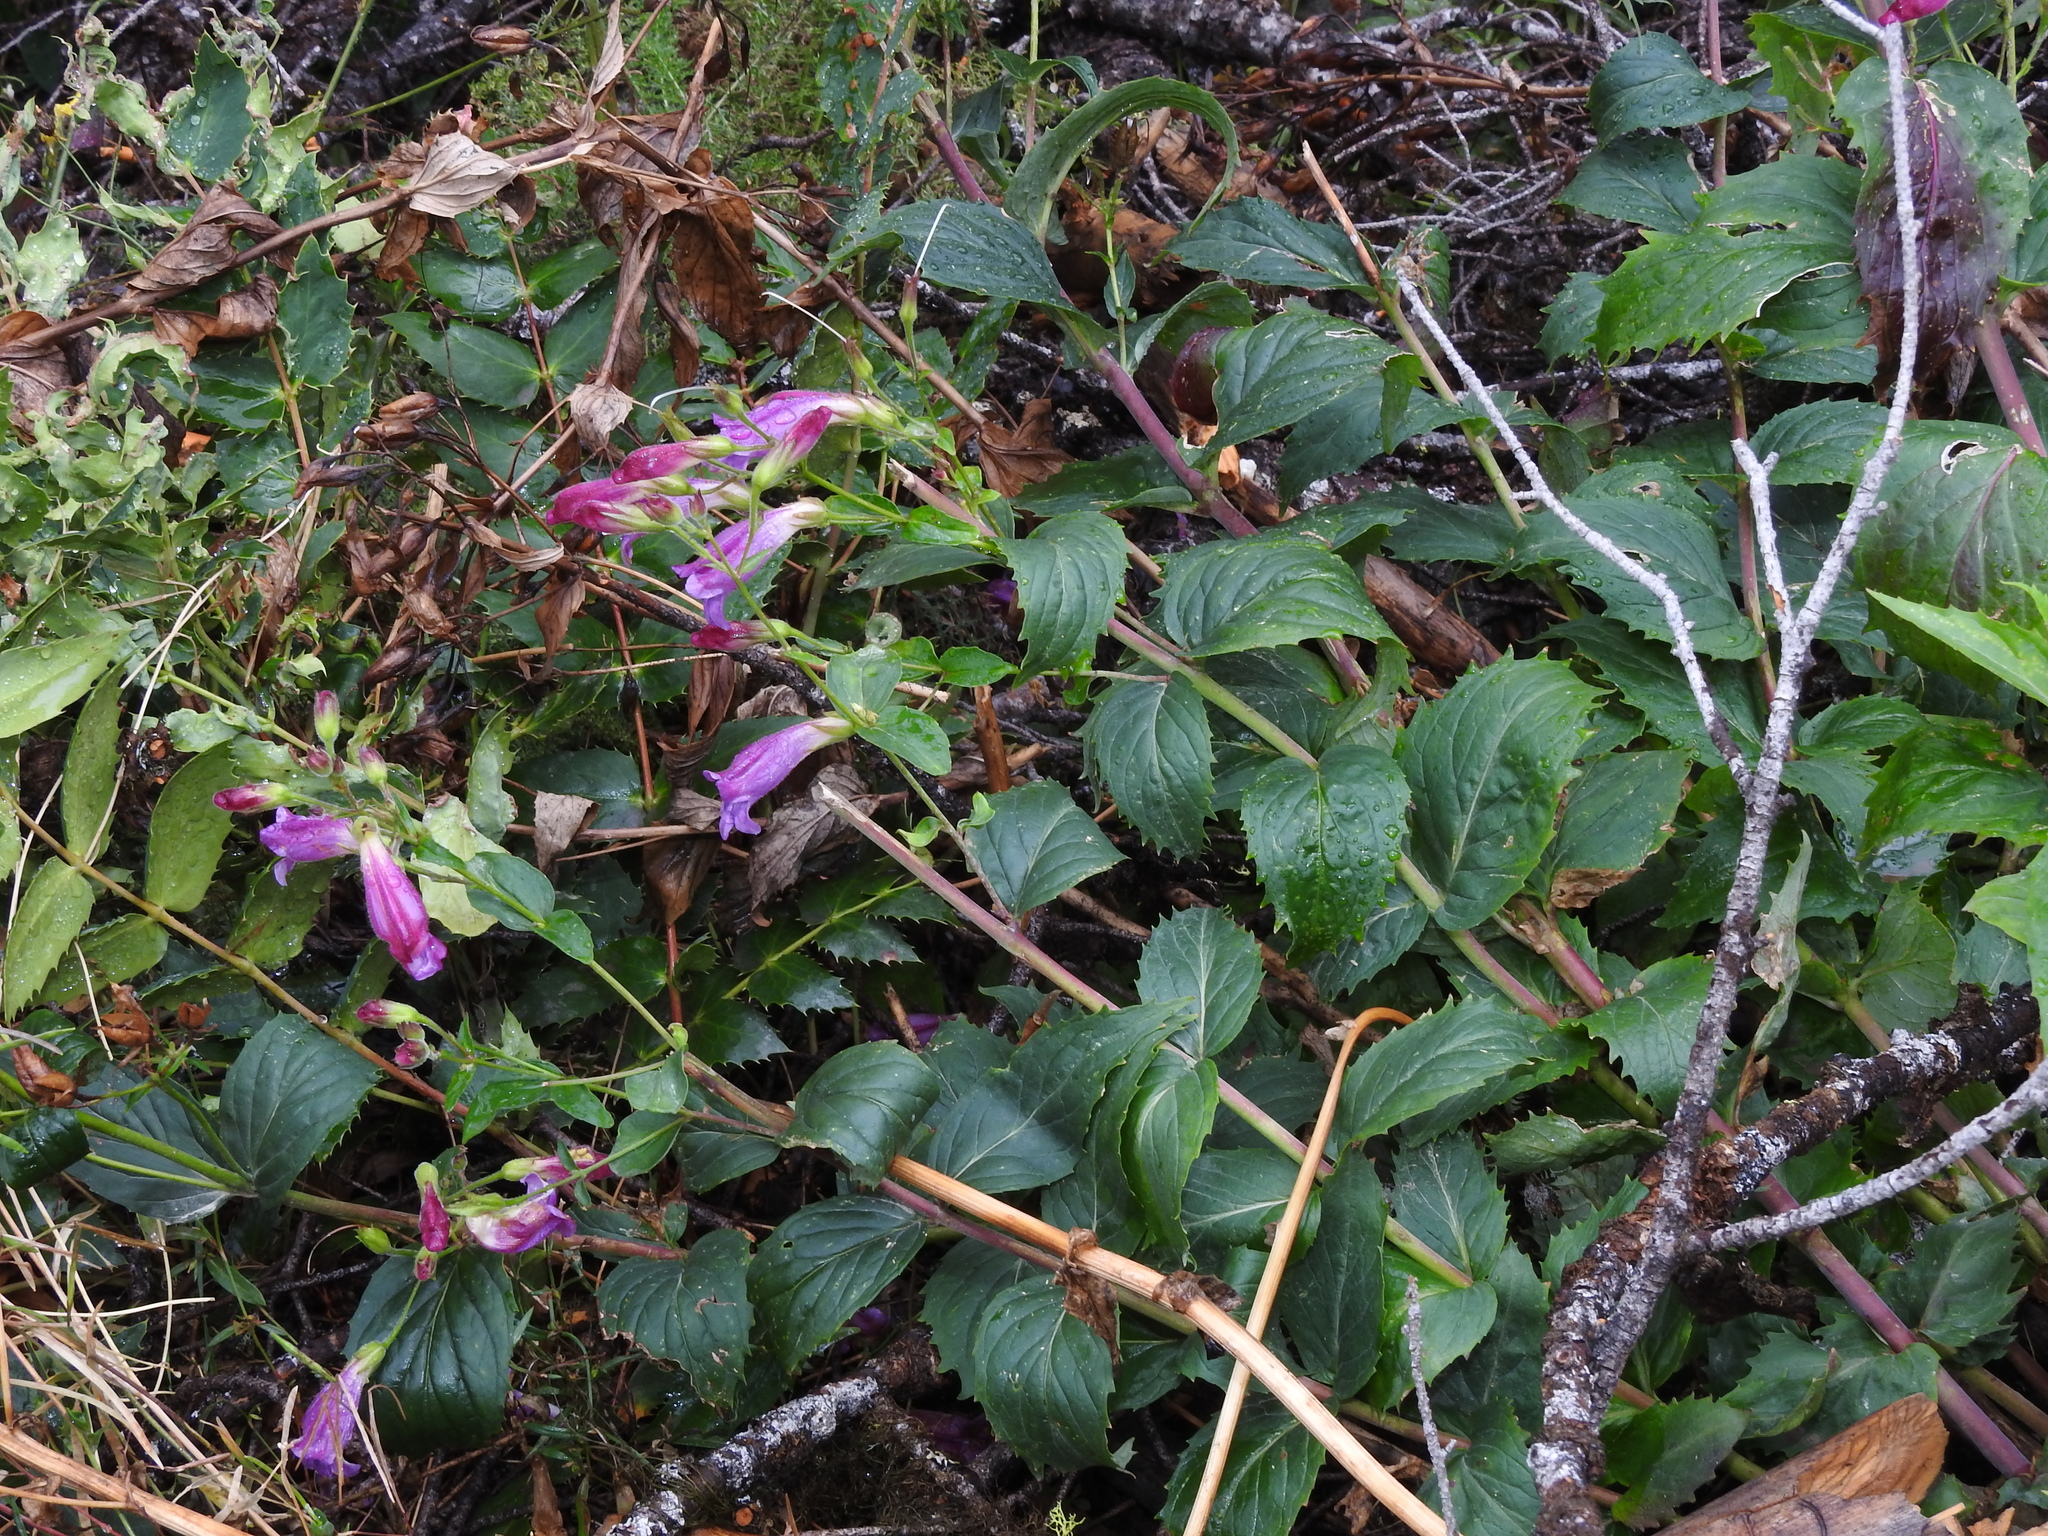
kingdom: Plantae
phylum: Tracheophyta
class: Magnoliopsida
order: Lamiales
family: Plantaginaceae
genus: Nothochelone
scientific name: Nothochelone nemorosa
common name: Woodland beardtongue
